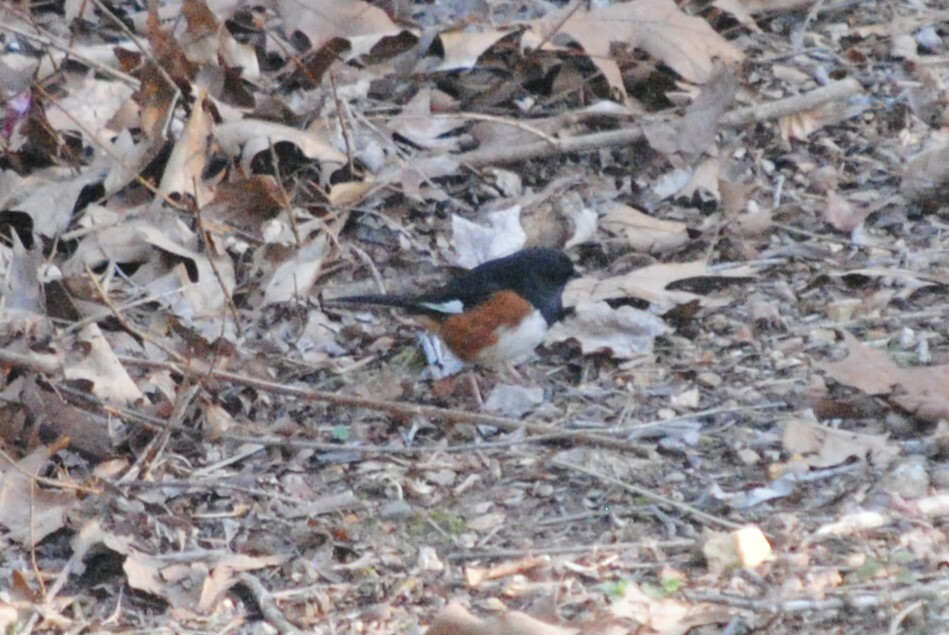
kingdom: Animalia
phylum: Chordata
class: Aves
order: Passeriformes
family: Passerellidae
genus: Pipilo
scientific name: Pipilo erythrophthalmus
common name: Eastern towhee
